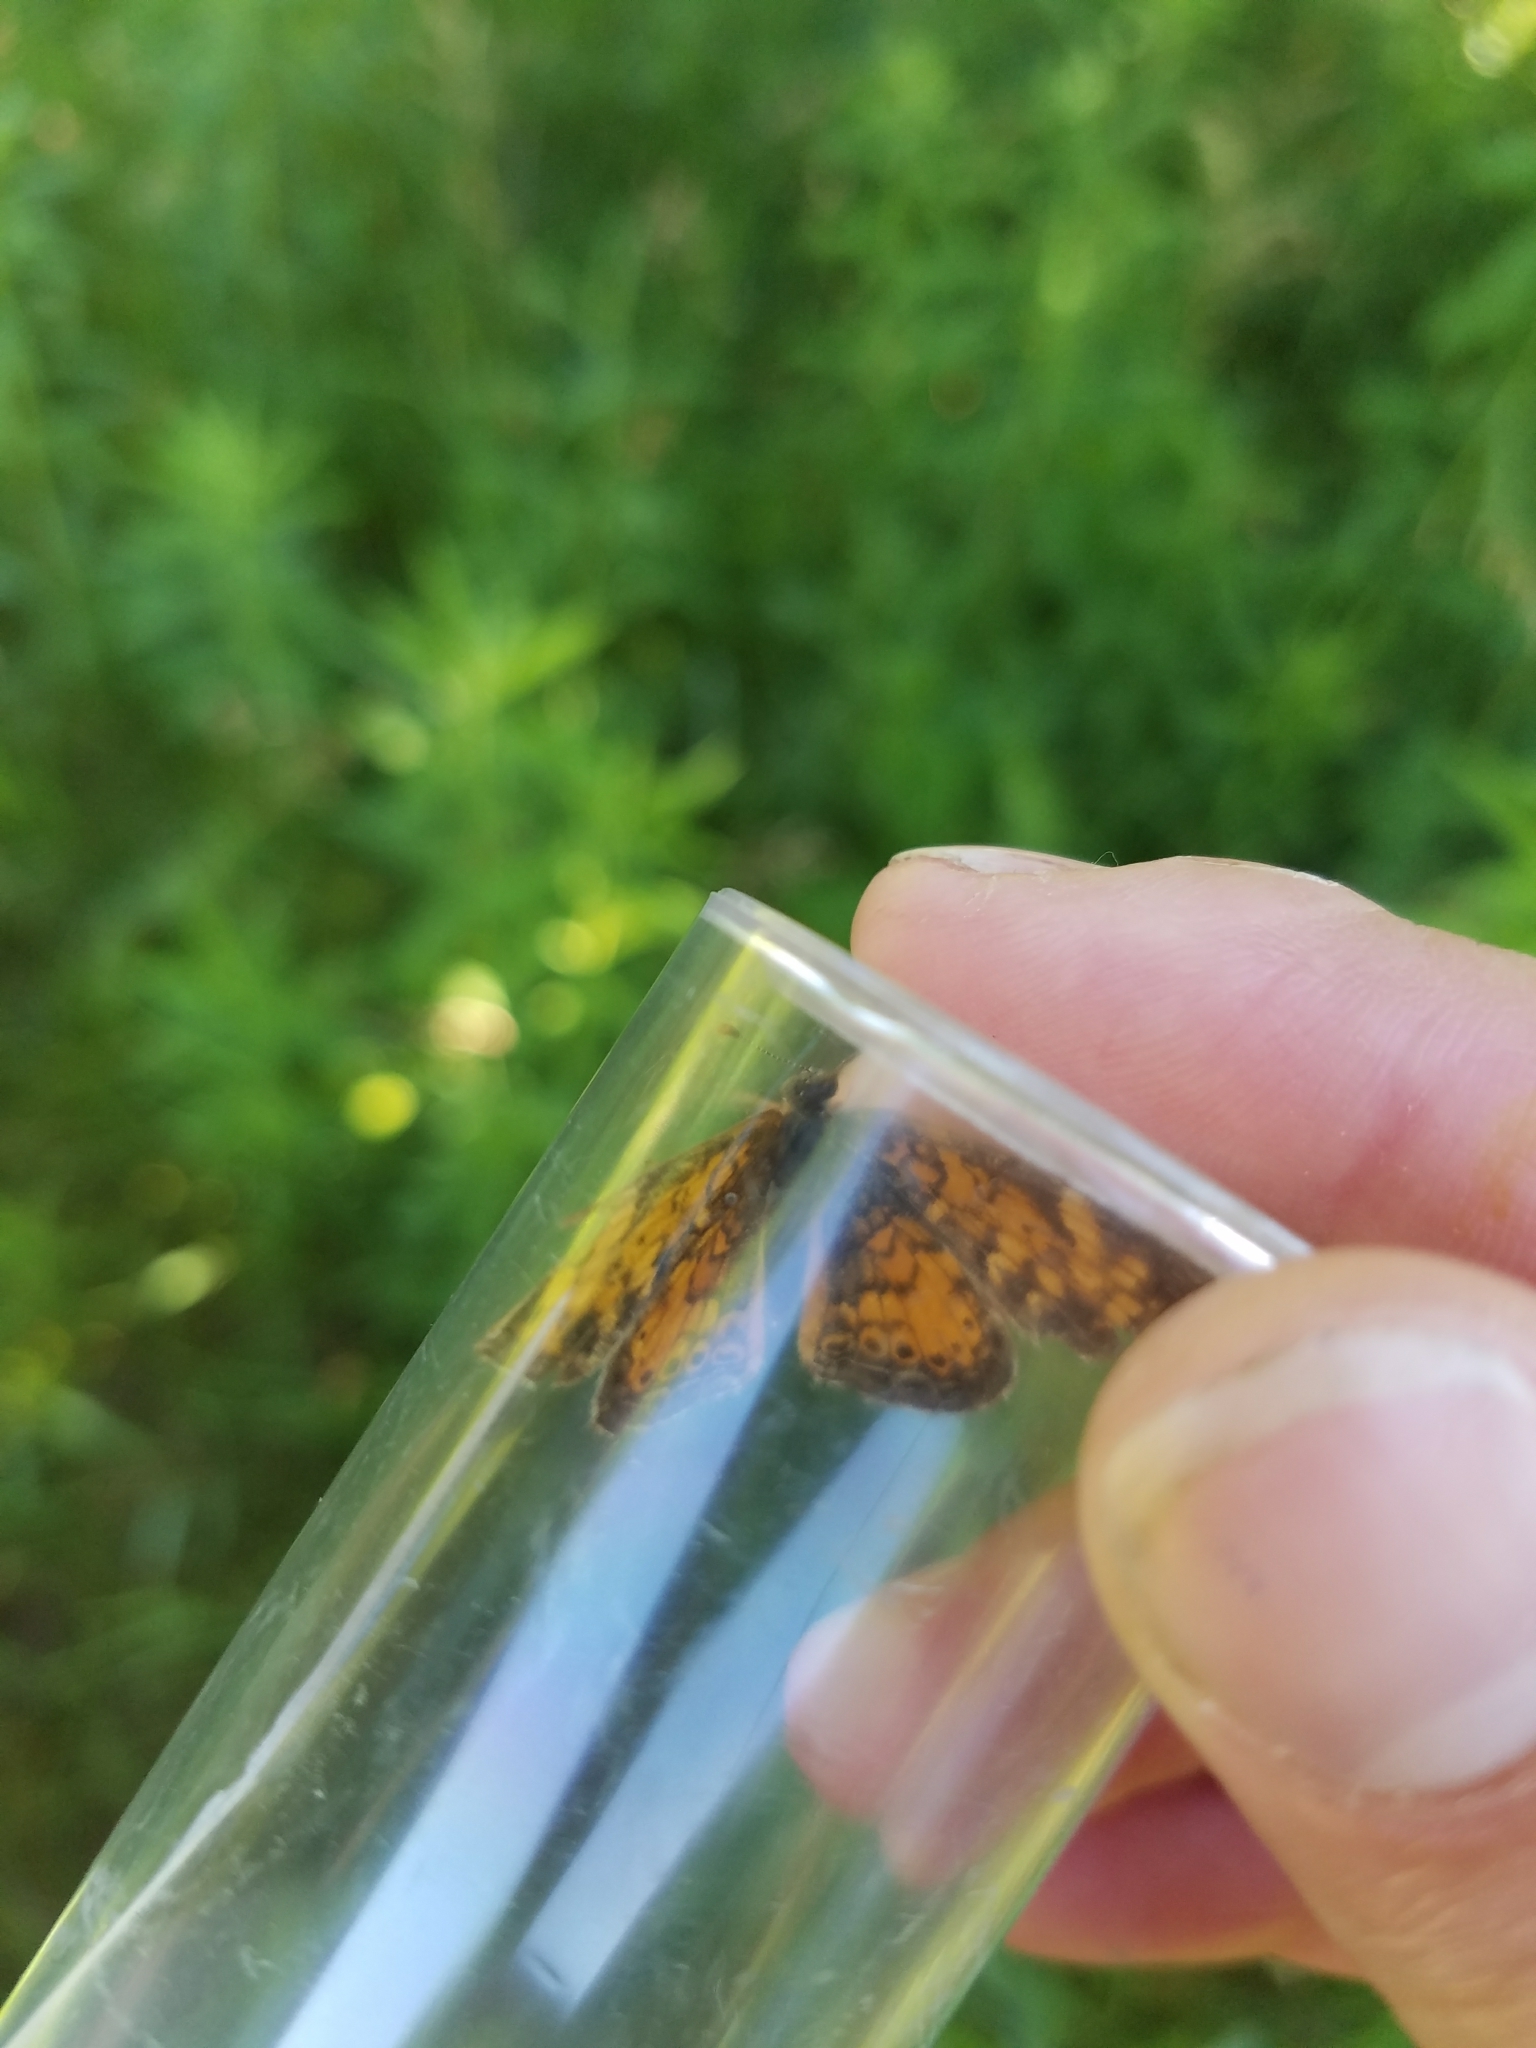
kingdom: Animalia
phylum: Arthropoda
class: Insecta
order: Lepidoptera
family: Nymphalidae
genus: Phyciodes
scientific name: Phyciodes tharos
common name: Pearl crescent
